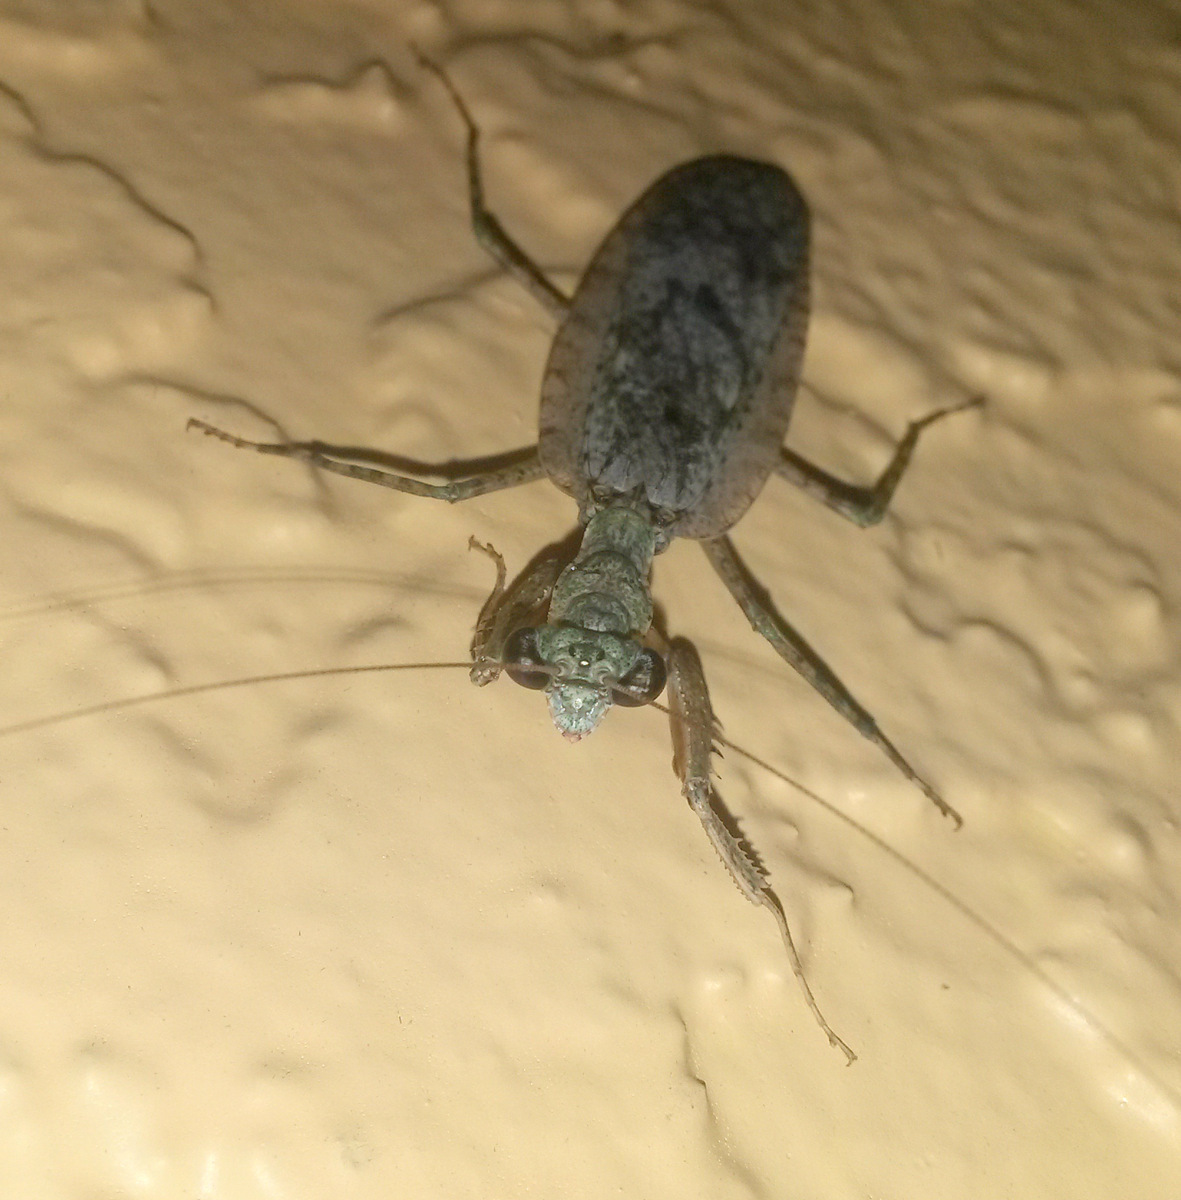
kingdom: Animalia
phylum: Arthropoda
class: Insecta
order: Mantodea
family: Epaphroditidae
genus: Gonatista
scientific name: Gonatista grisea
